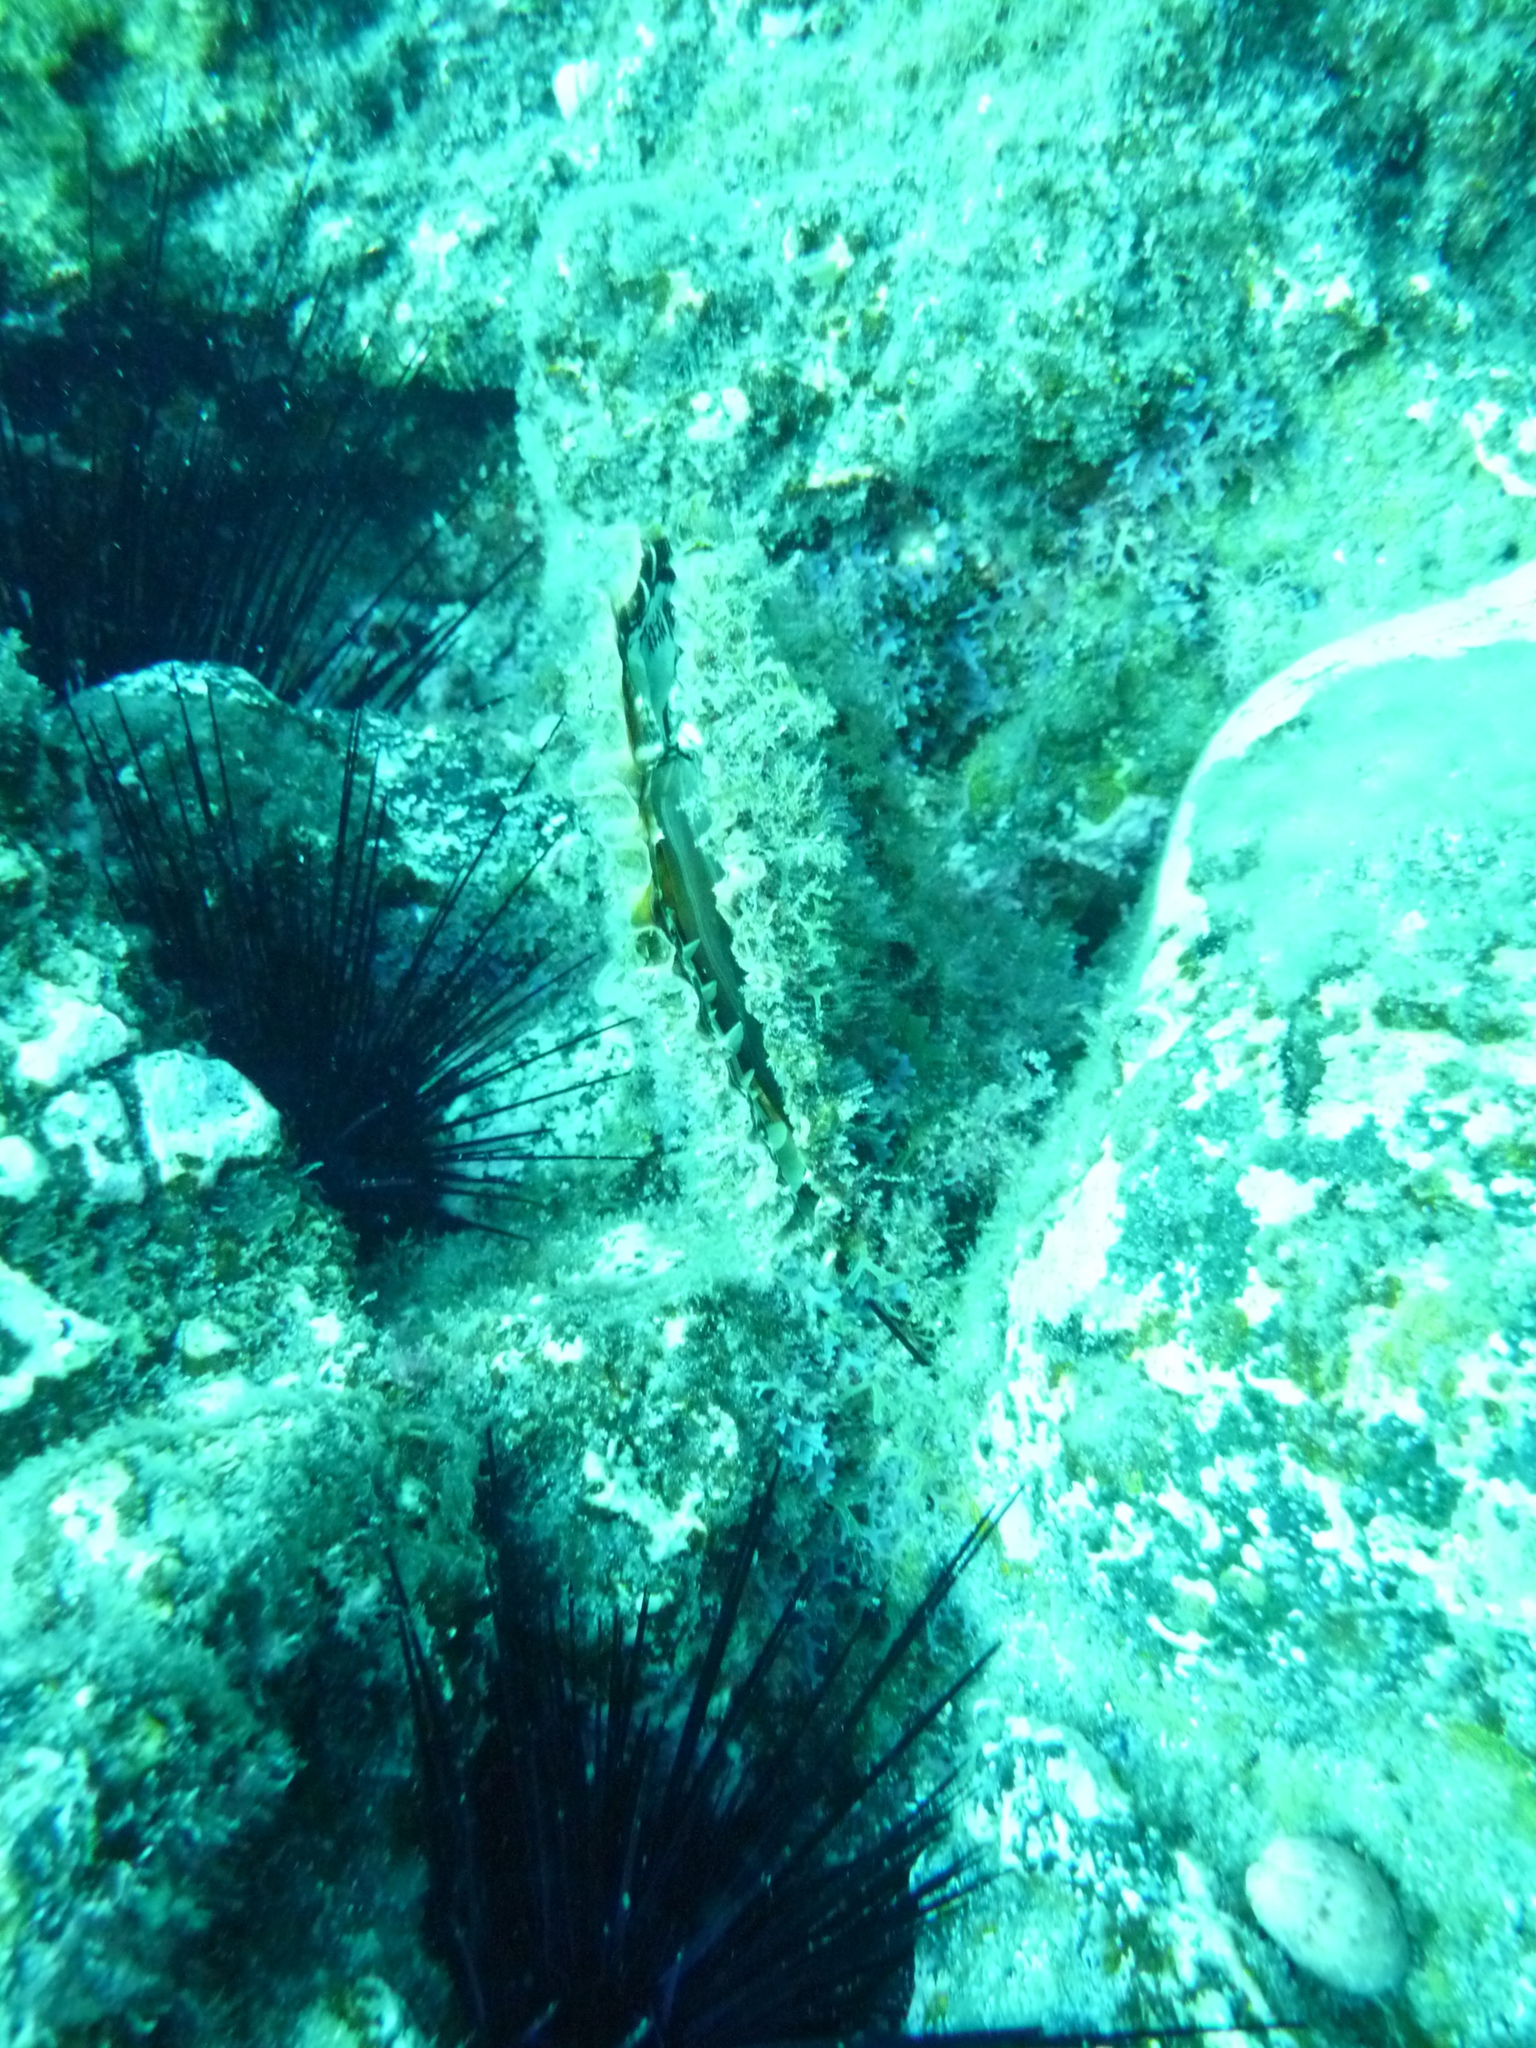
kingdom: Animalia
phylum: Mollusca
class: Bivalvia
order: Ostreida
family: Pinnidae
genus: Pinna
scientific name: Pinna rudis
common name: Rough penshell
